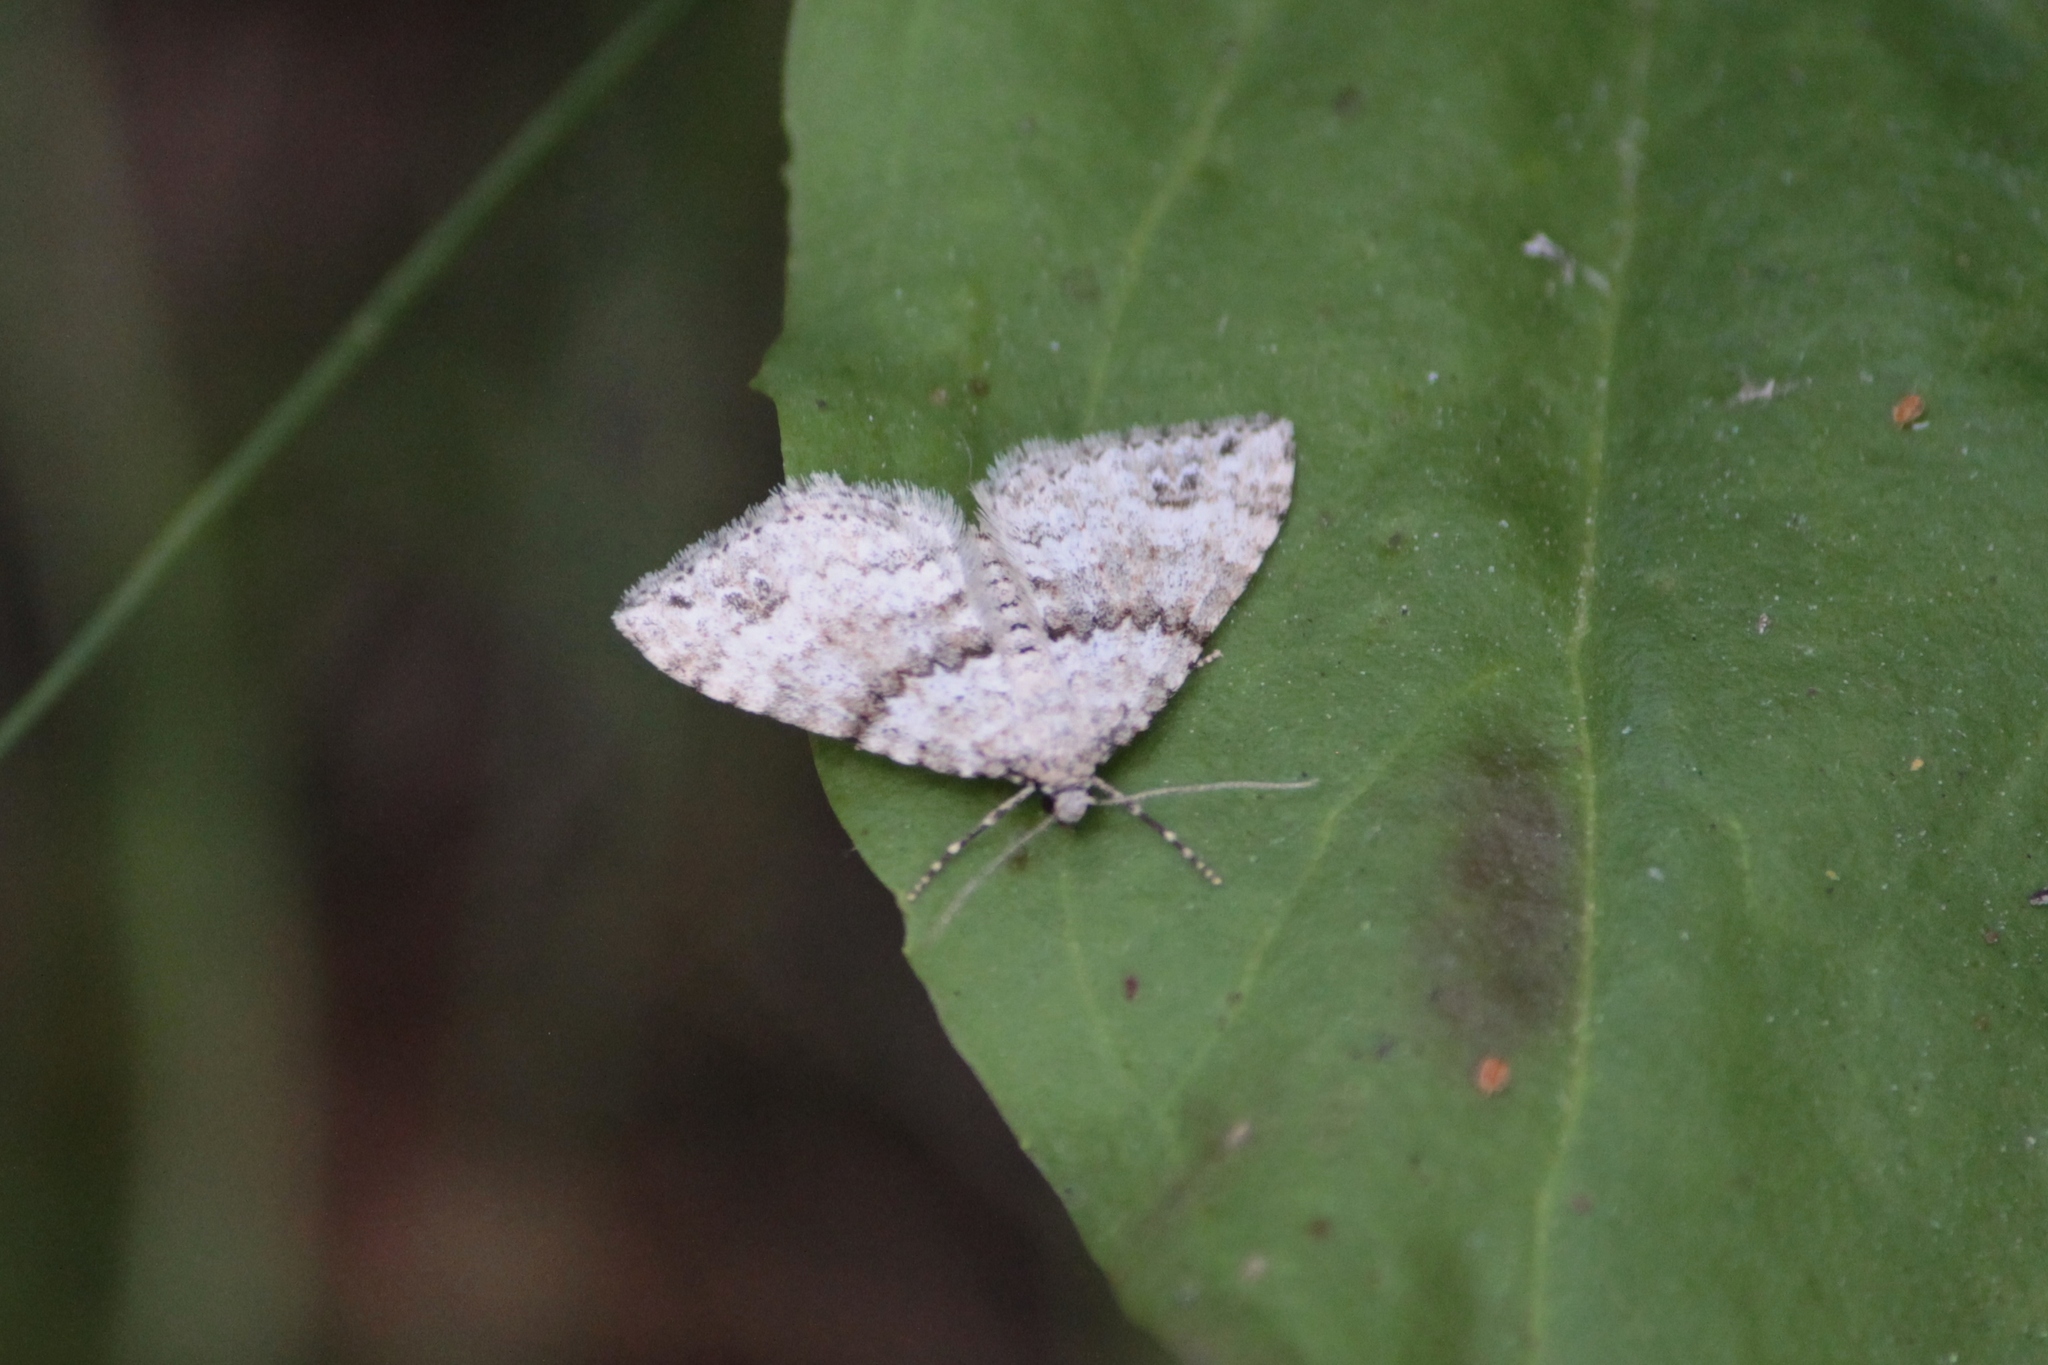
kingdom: Animalia
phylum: Arthropoda
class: Insecta
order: Lepidoptera
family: Geometridae
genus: Perizoma
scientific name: Perizoma didymata
